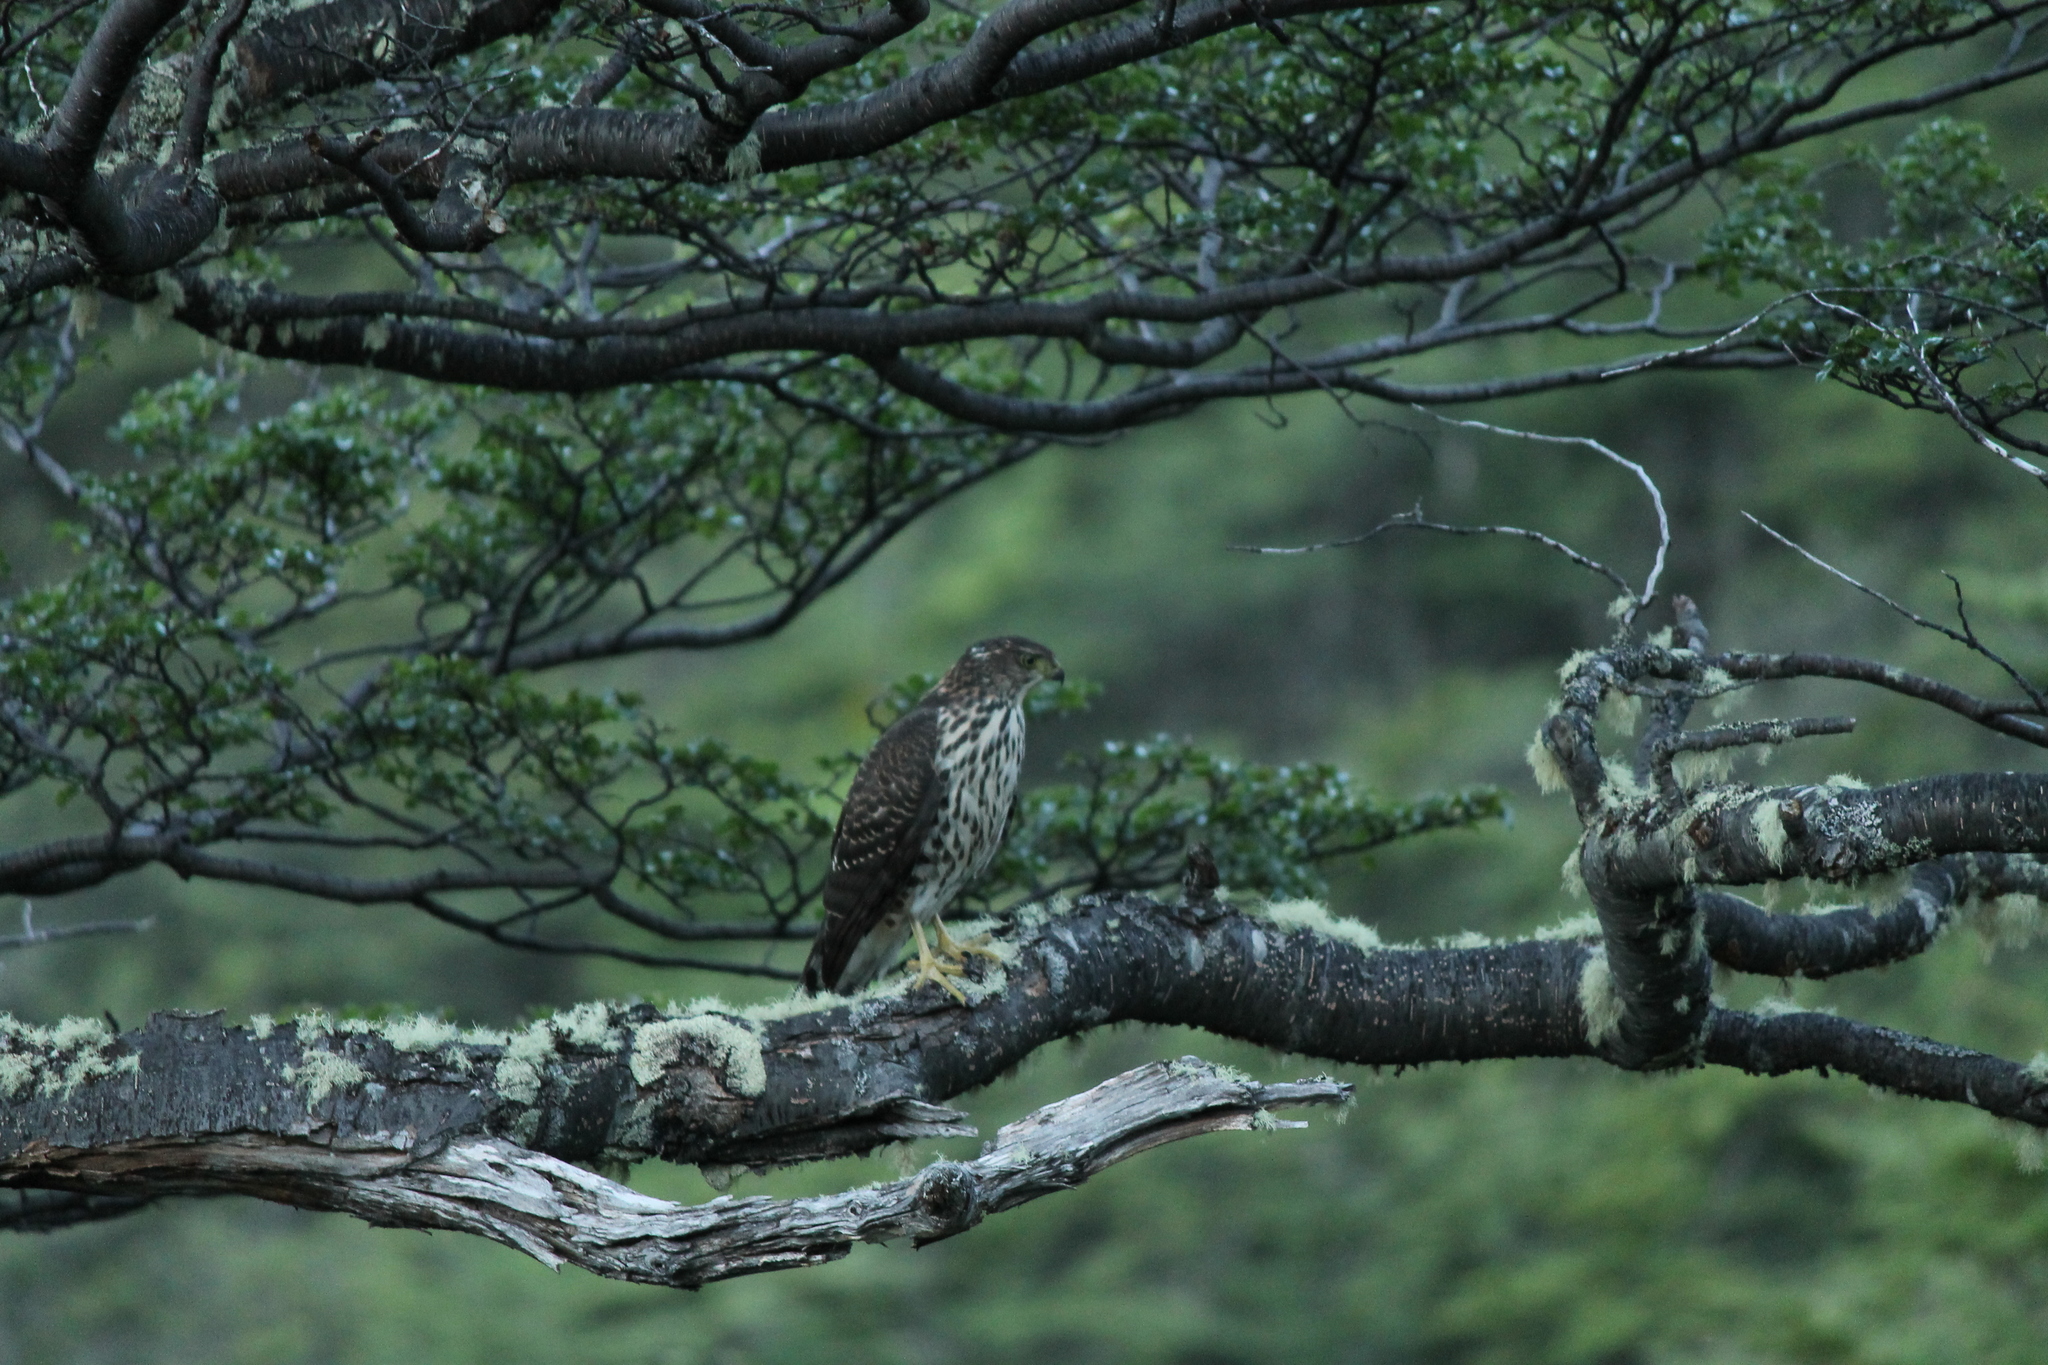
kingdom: Animalia
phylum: Chordata
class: Aves
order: Accipitriformes
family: Accipitridae
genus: Accipiter
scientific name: Accipiter chilensis
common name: Chilean hawk
